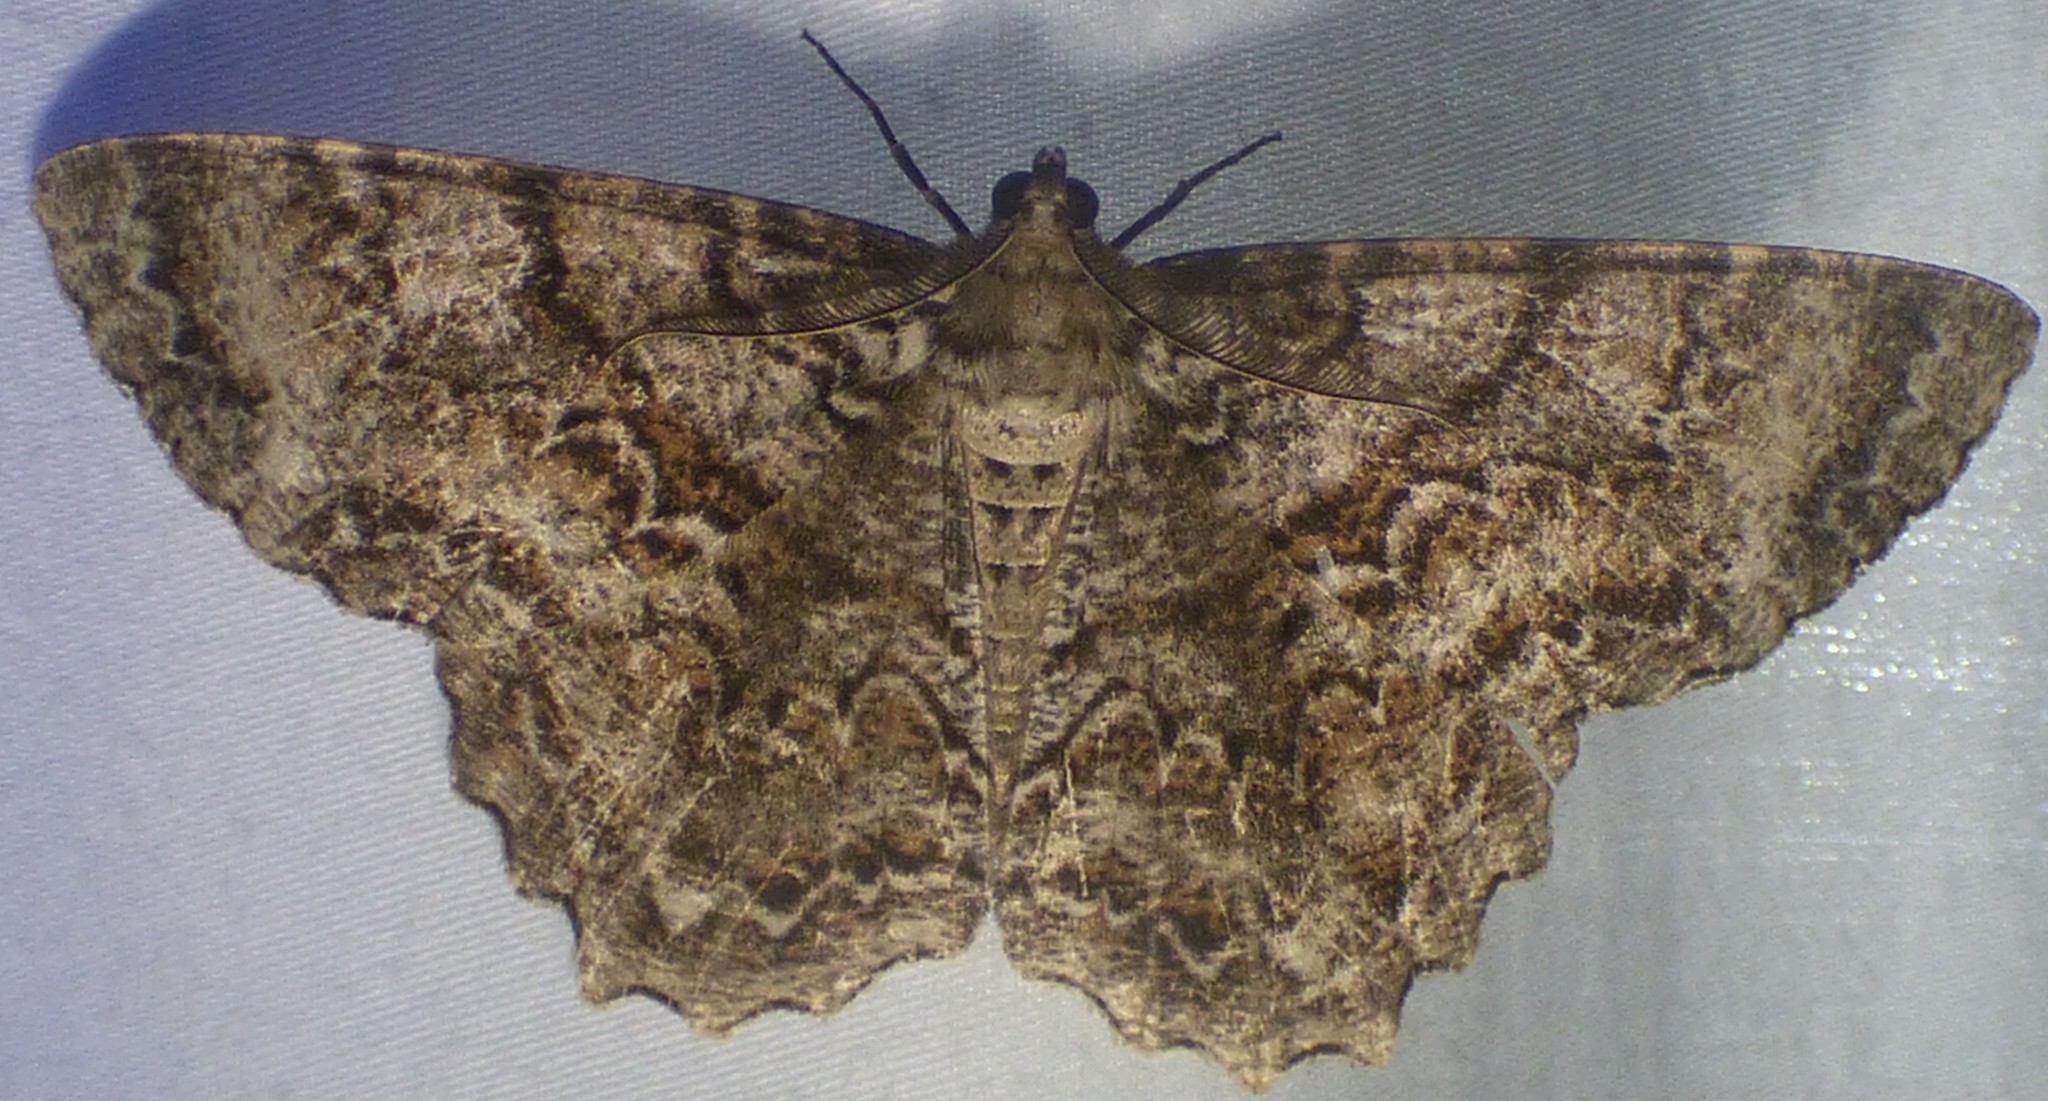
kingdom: Animalia
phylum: Arthropoda
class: Insecta
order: Lepidoptera
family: Geometridae
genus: Epimecis
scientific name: Epimecis hortaria
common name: Tulip-tree beauty
